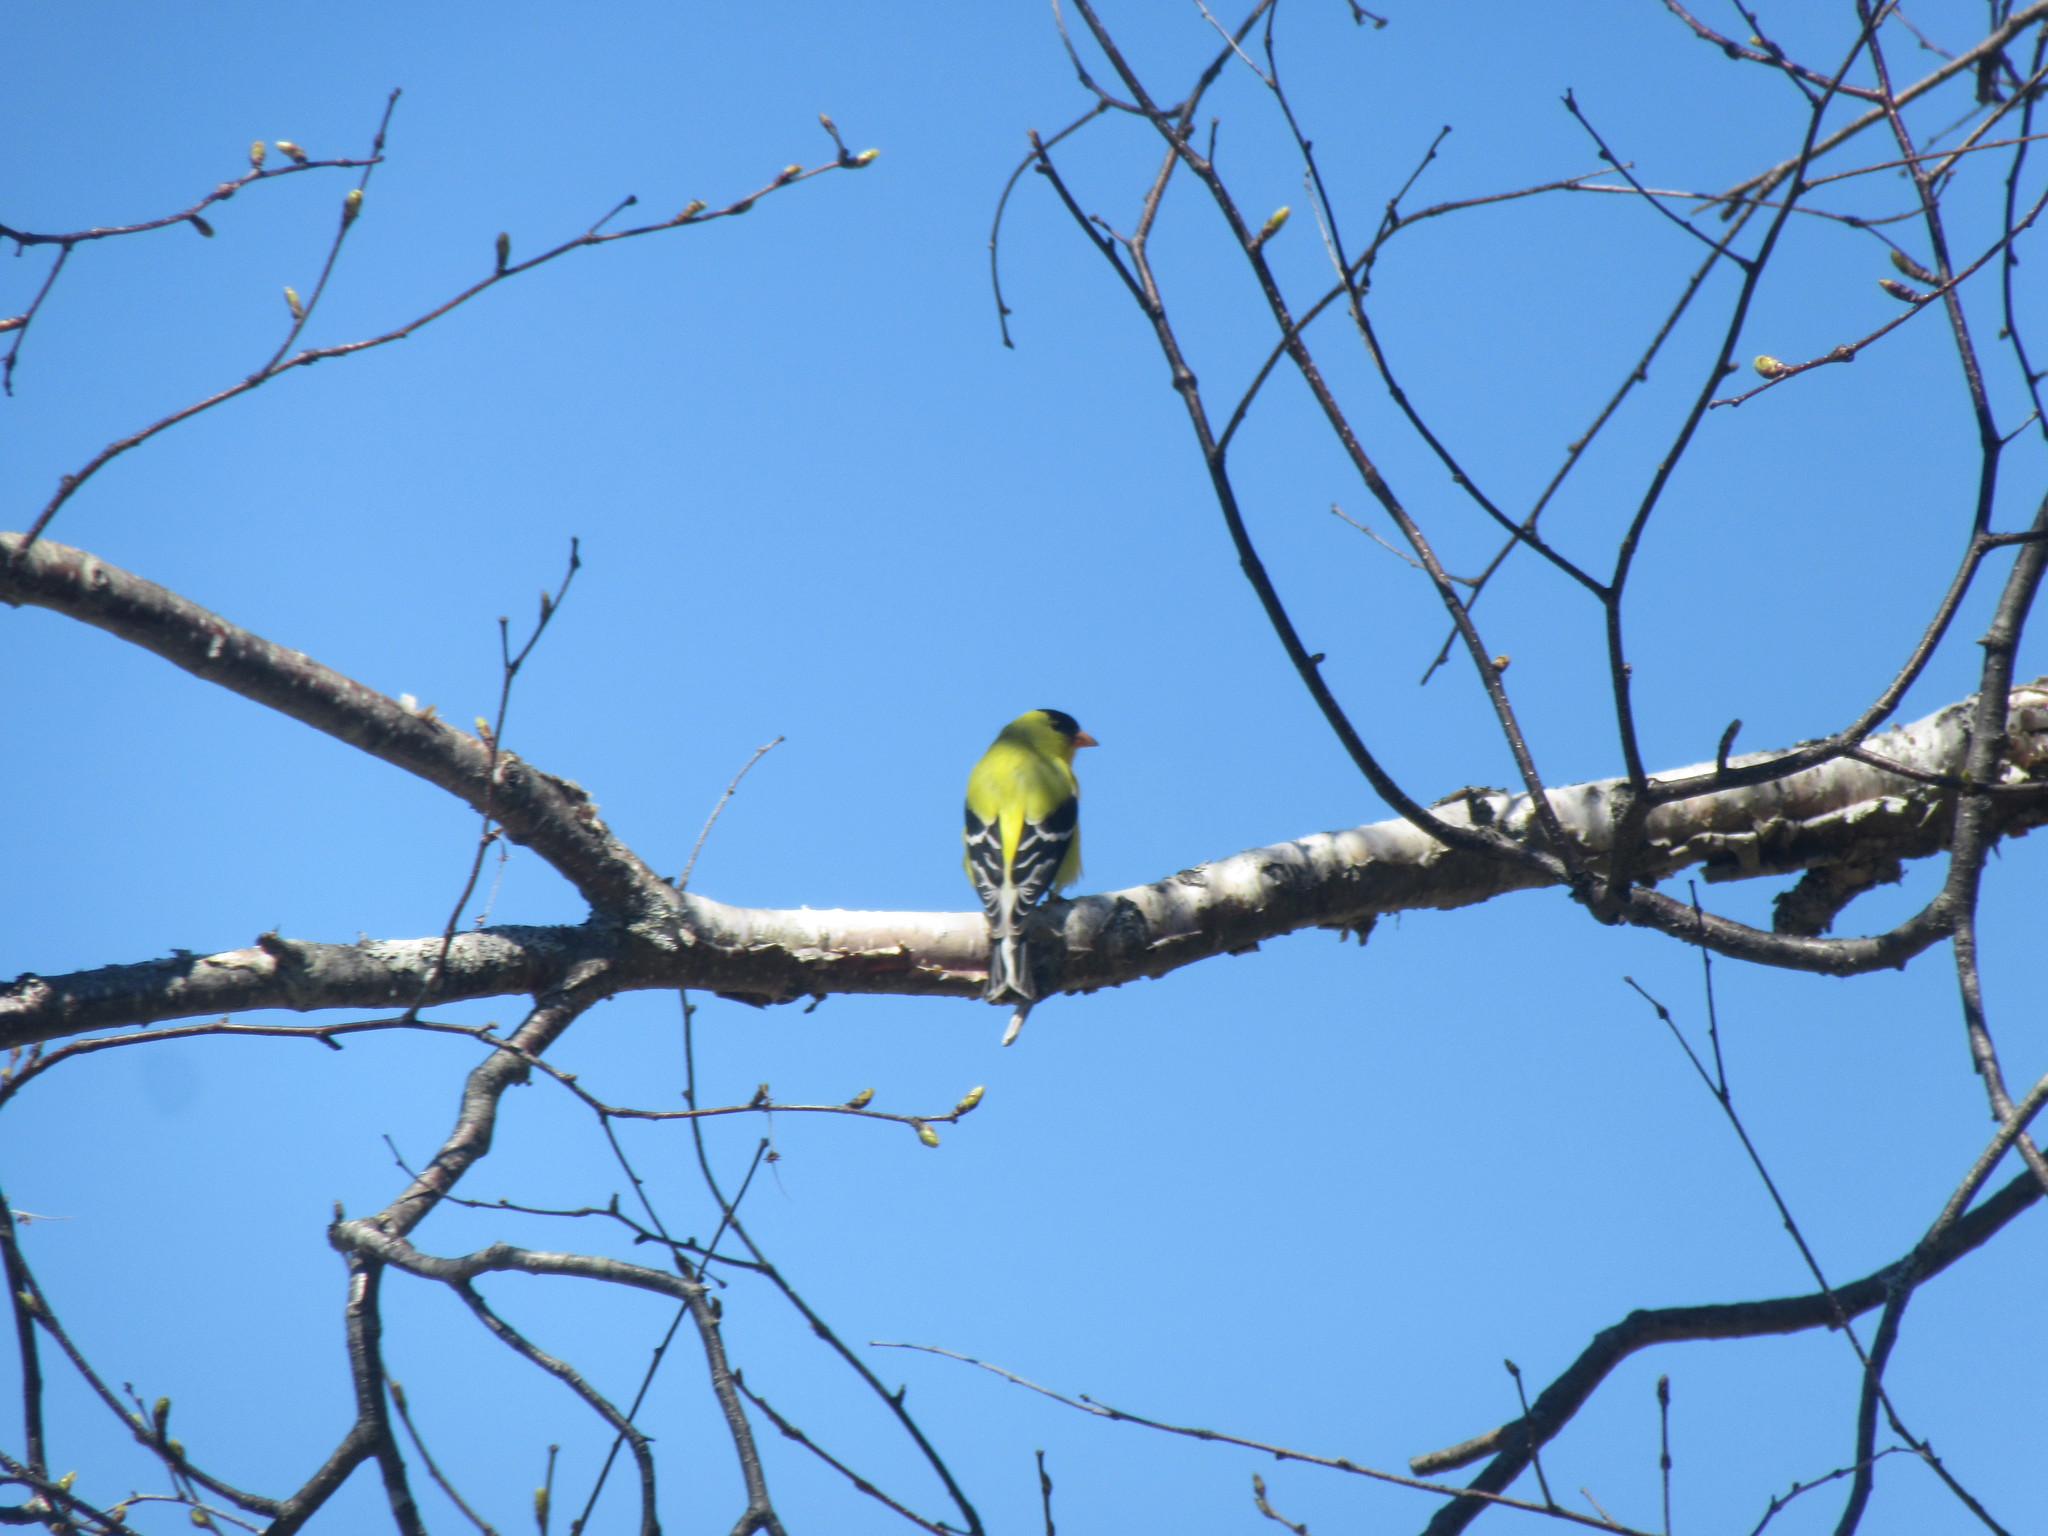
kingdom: Animalia
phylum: Chordata
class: Aves
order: Passeriformes
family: Fringillidae
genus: Spinus
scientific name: Spinus tristis
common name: American goldfinch
